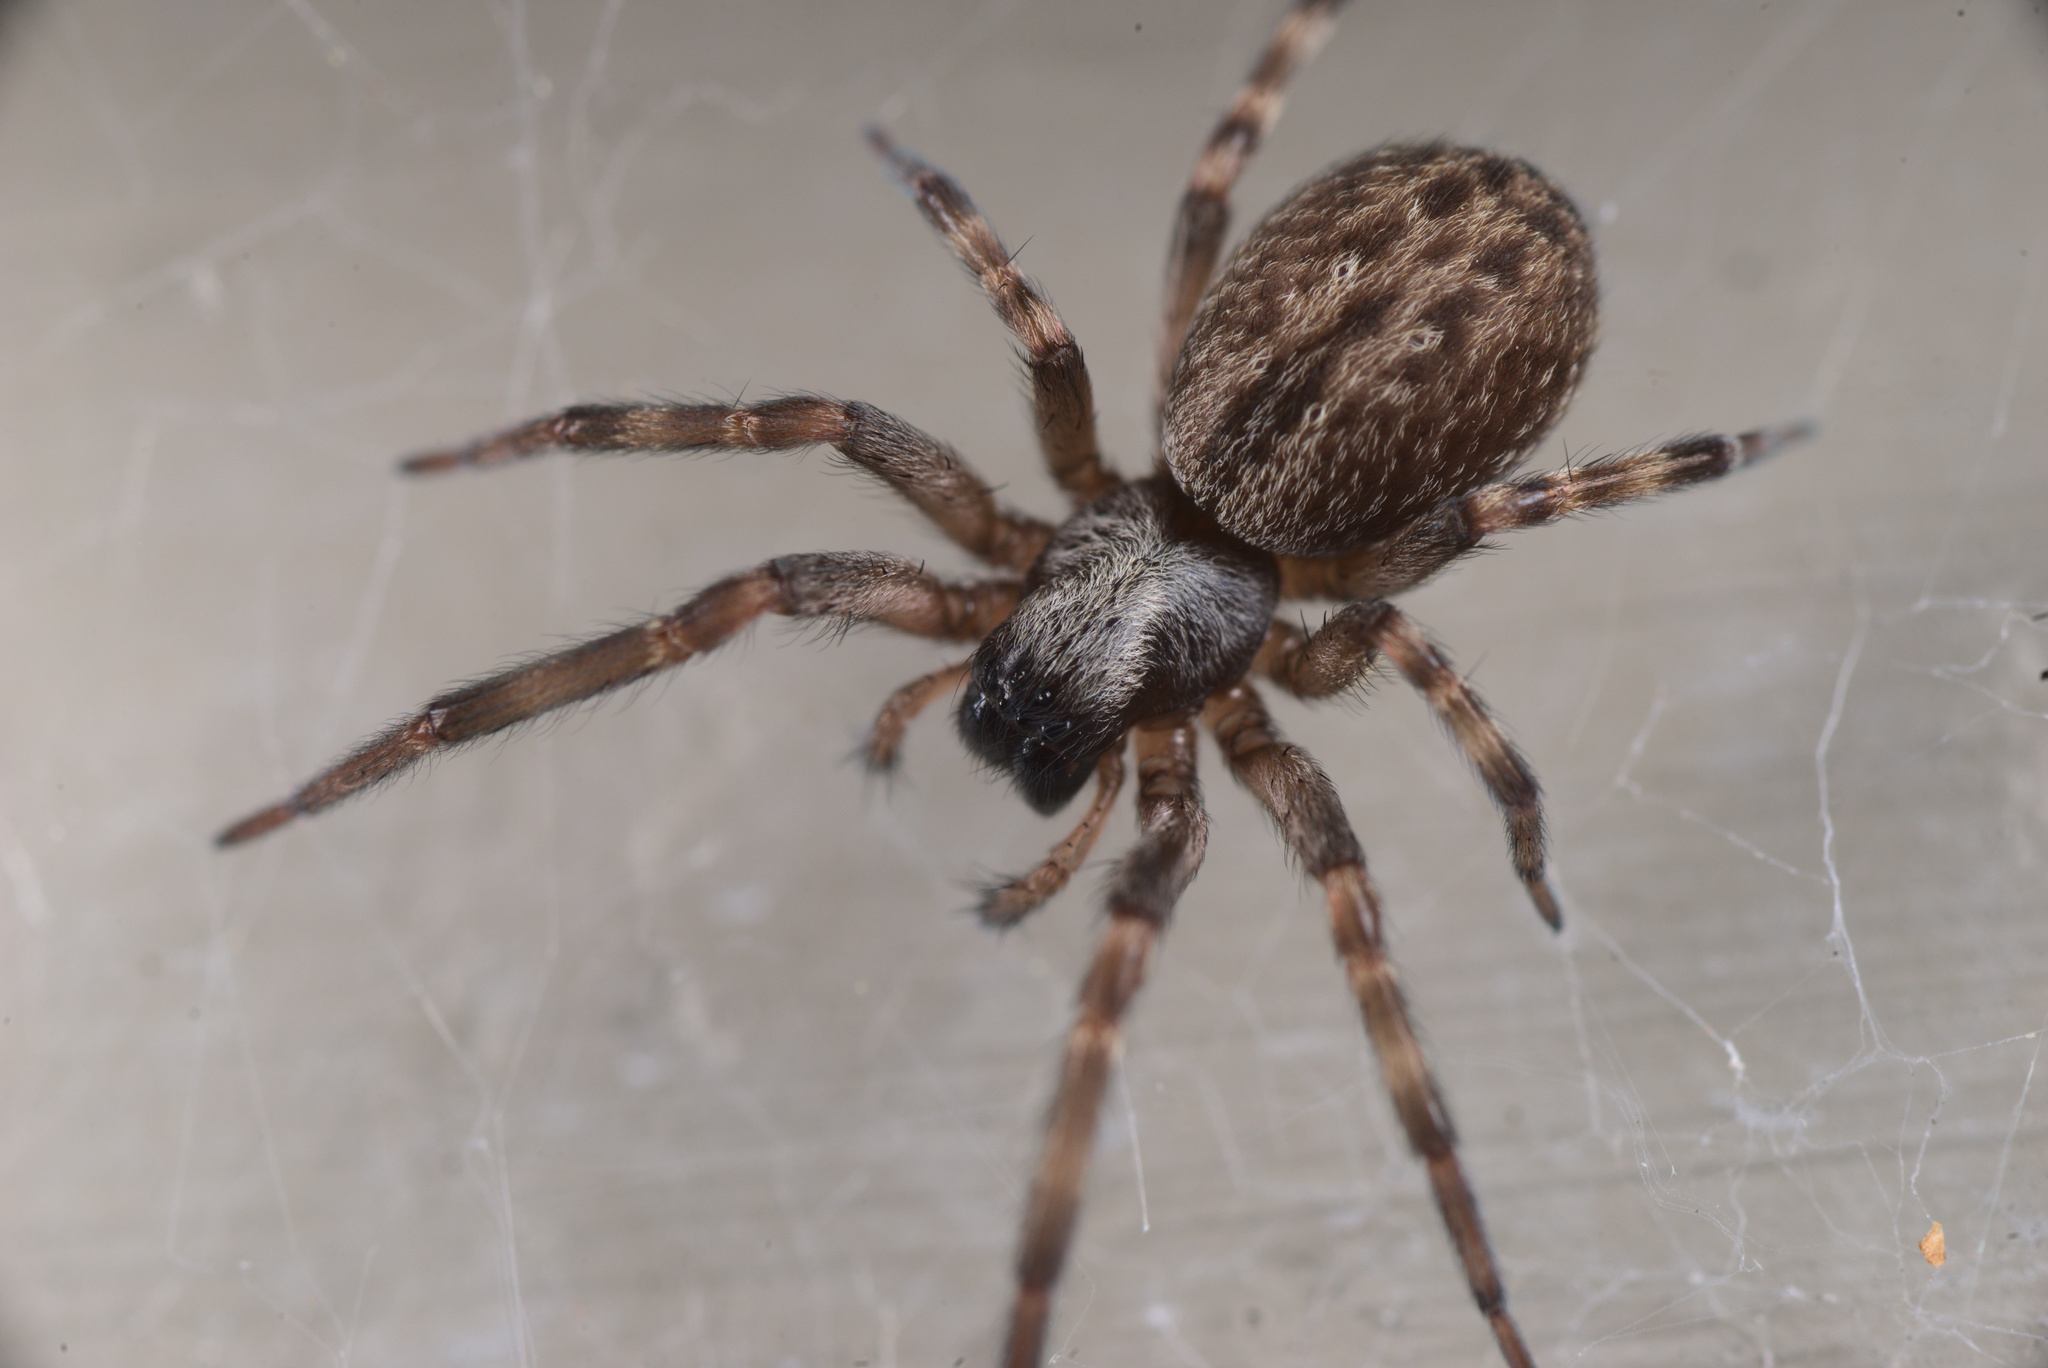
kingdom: Animalia
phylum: Arthropoda
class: Arachnida
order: Araneae
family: Desidae
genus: Badumna
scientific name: Badumna longinqua
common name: Gray house spider
